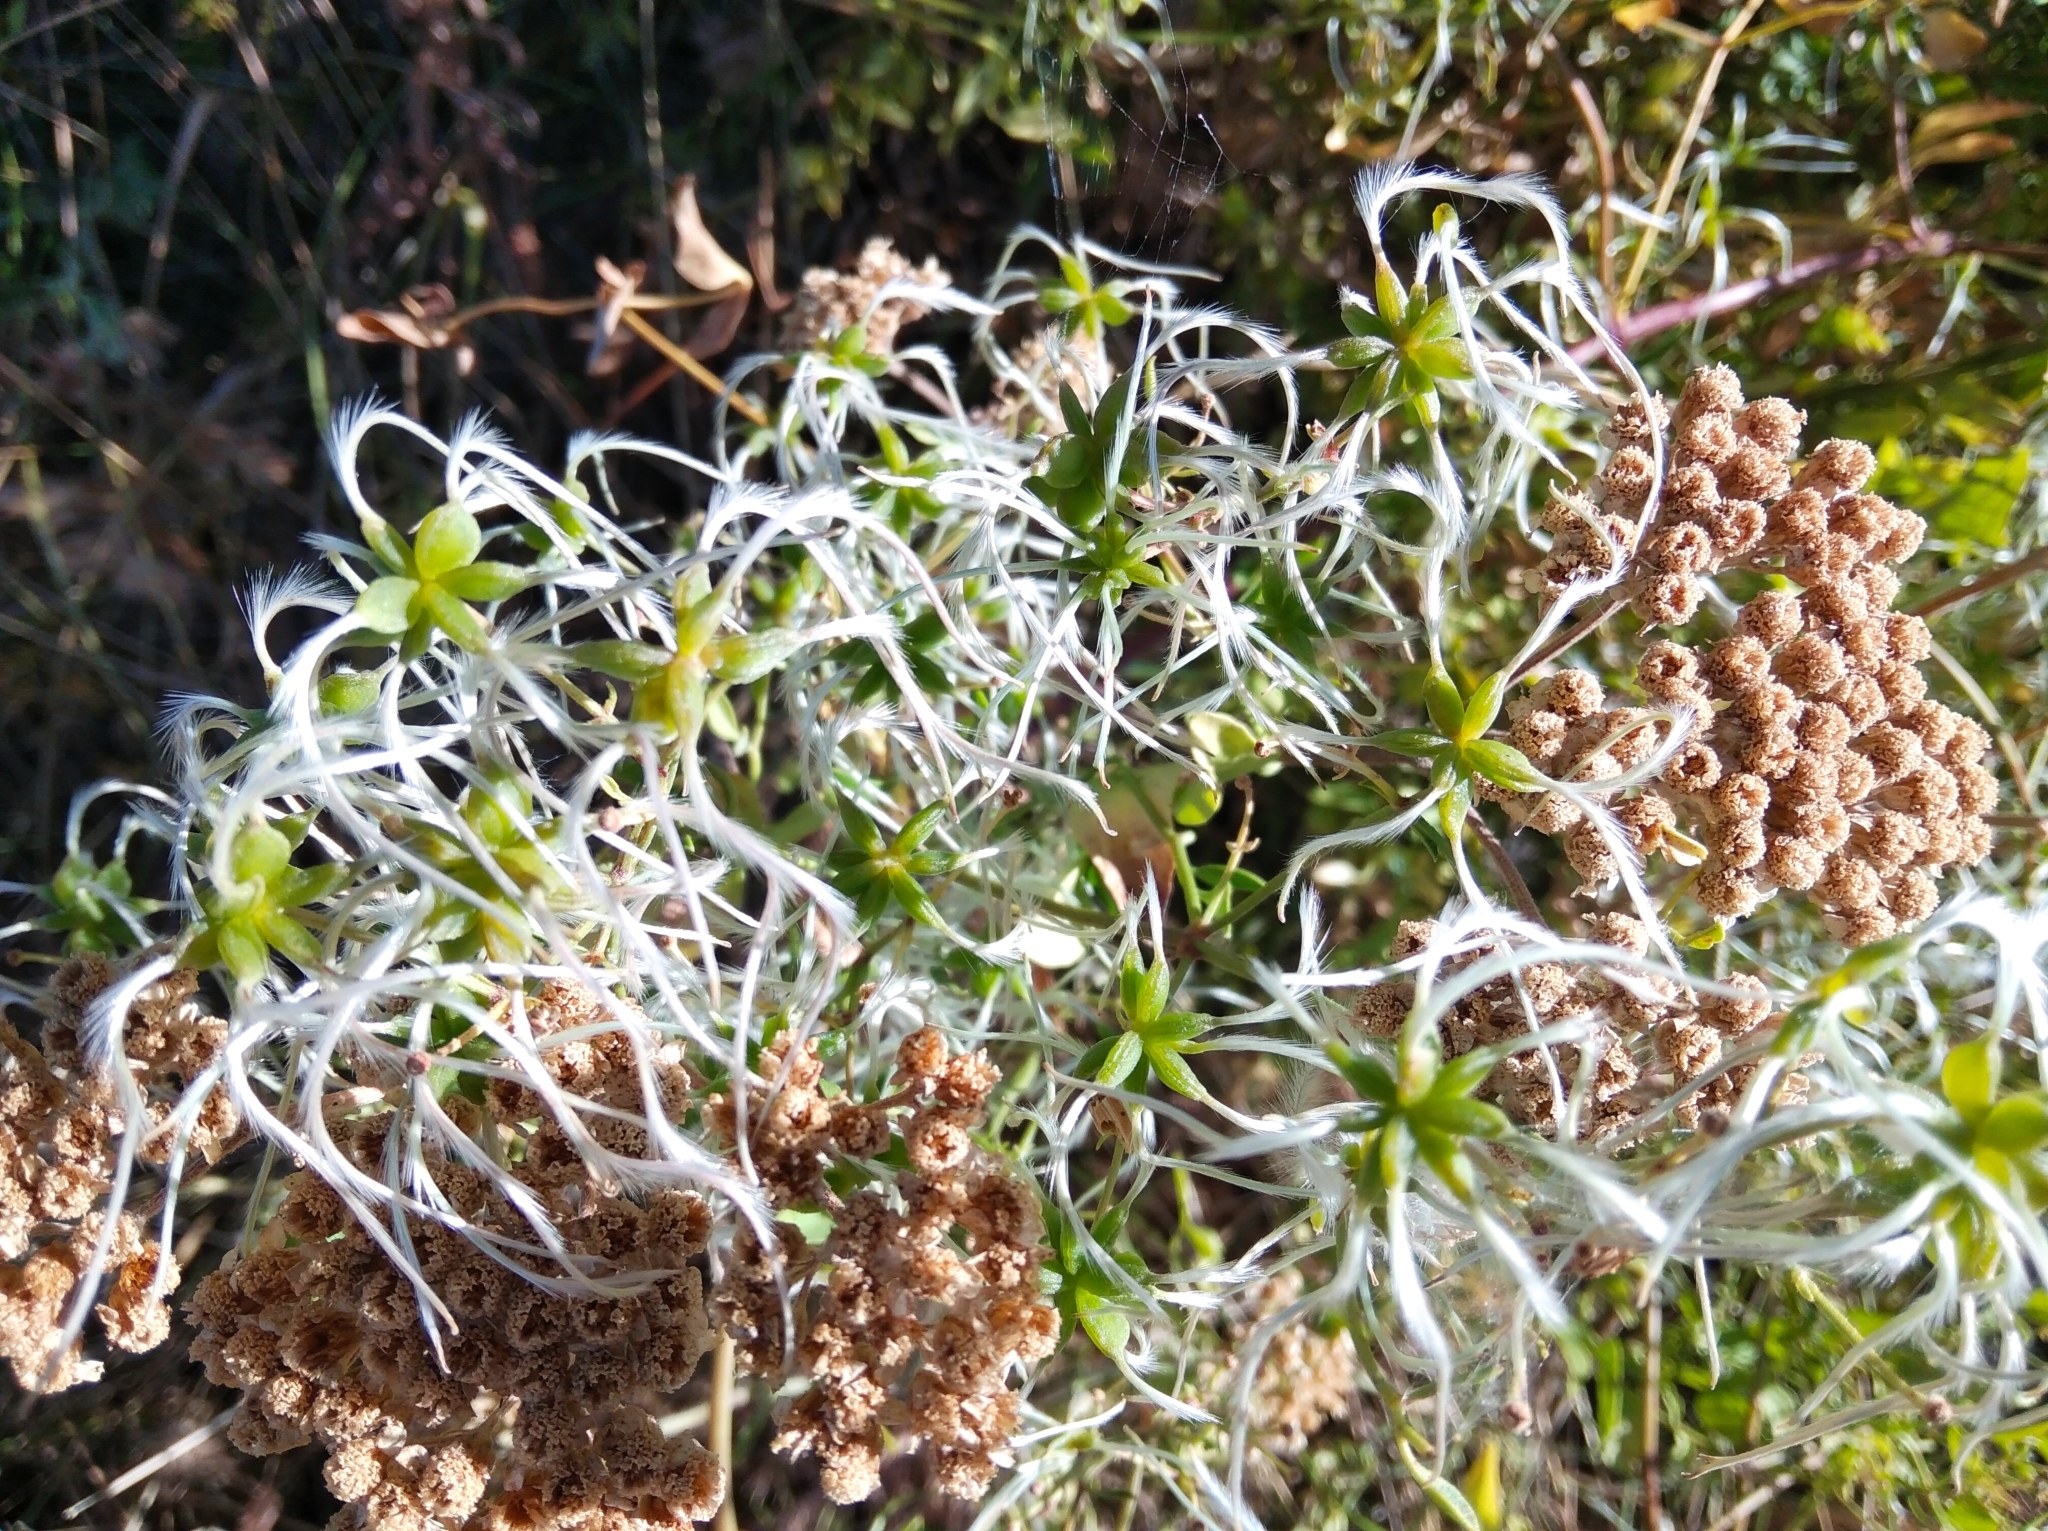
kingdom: Plantae
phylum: Tracheophyta
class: Magnoliopsida
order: Ranunculales
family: Ranunculaceae
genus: Clematis
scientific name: Clematis flammula
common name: Virgin's-bower
